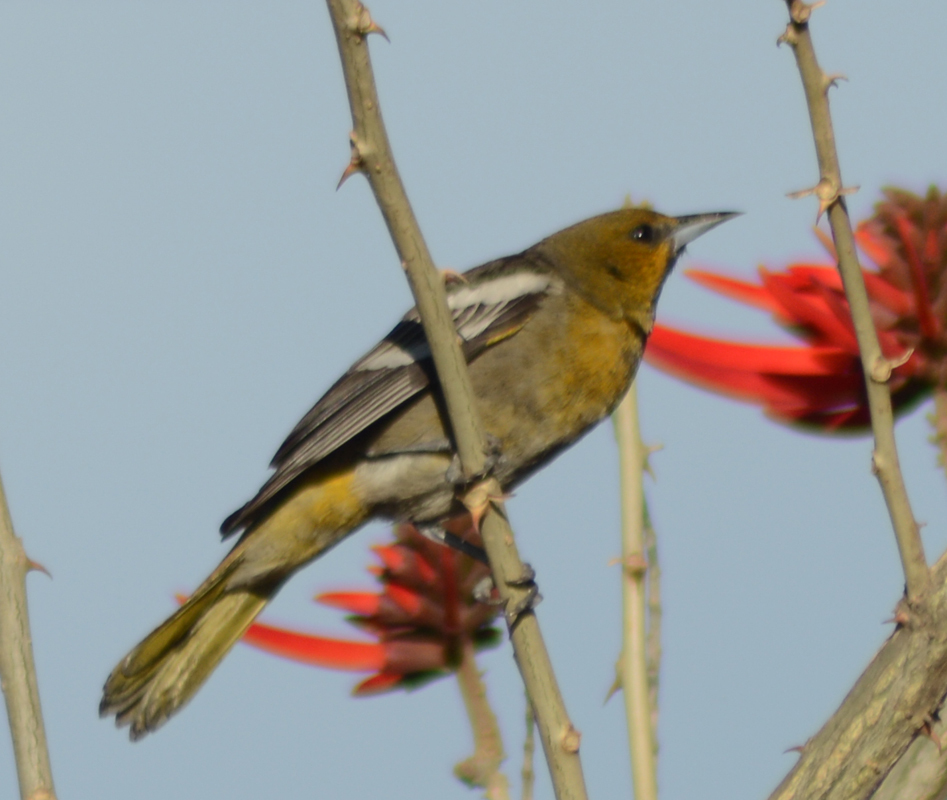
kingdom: Animalia
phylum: Chordata
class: Aves
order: Passeriformes
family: Icteridae
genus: Icterus
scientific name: Icterus abeillei
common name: Black-backed oriole
